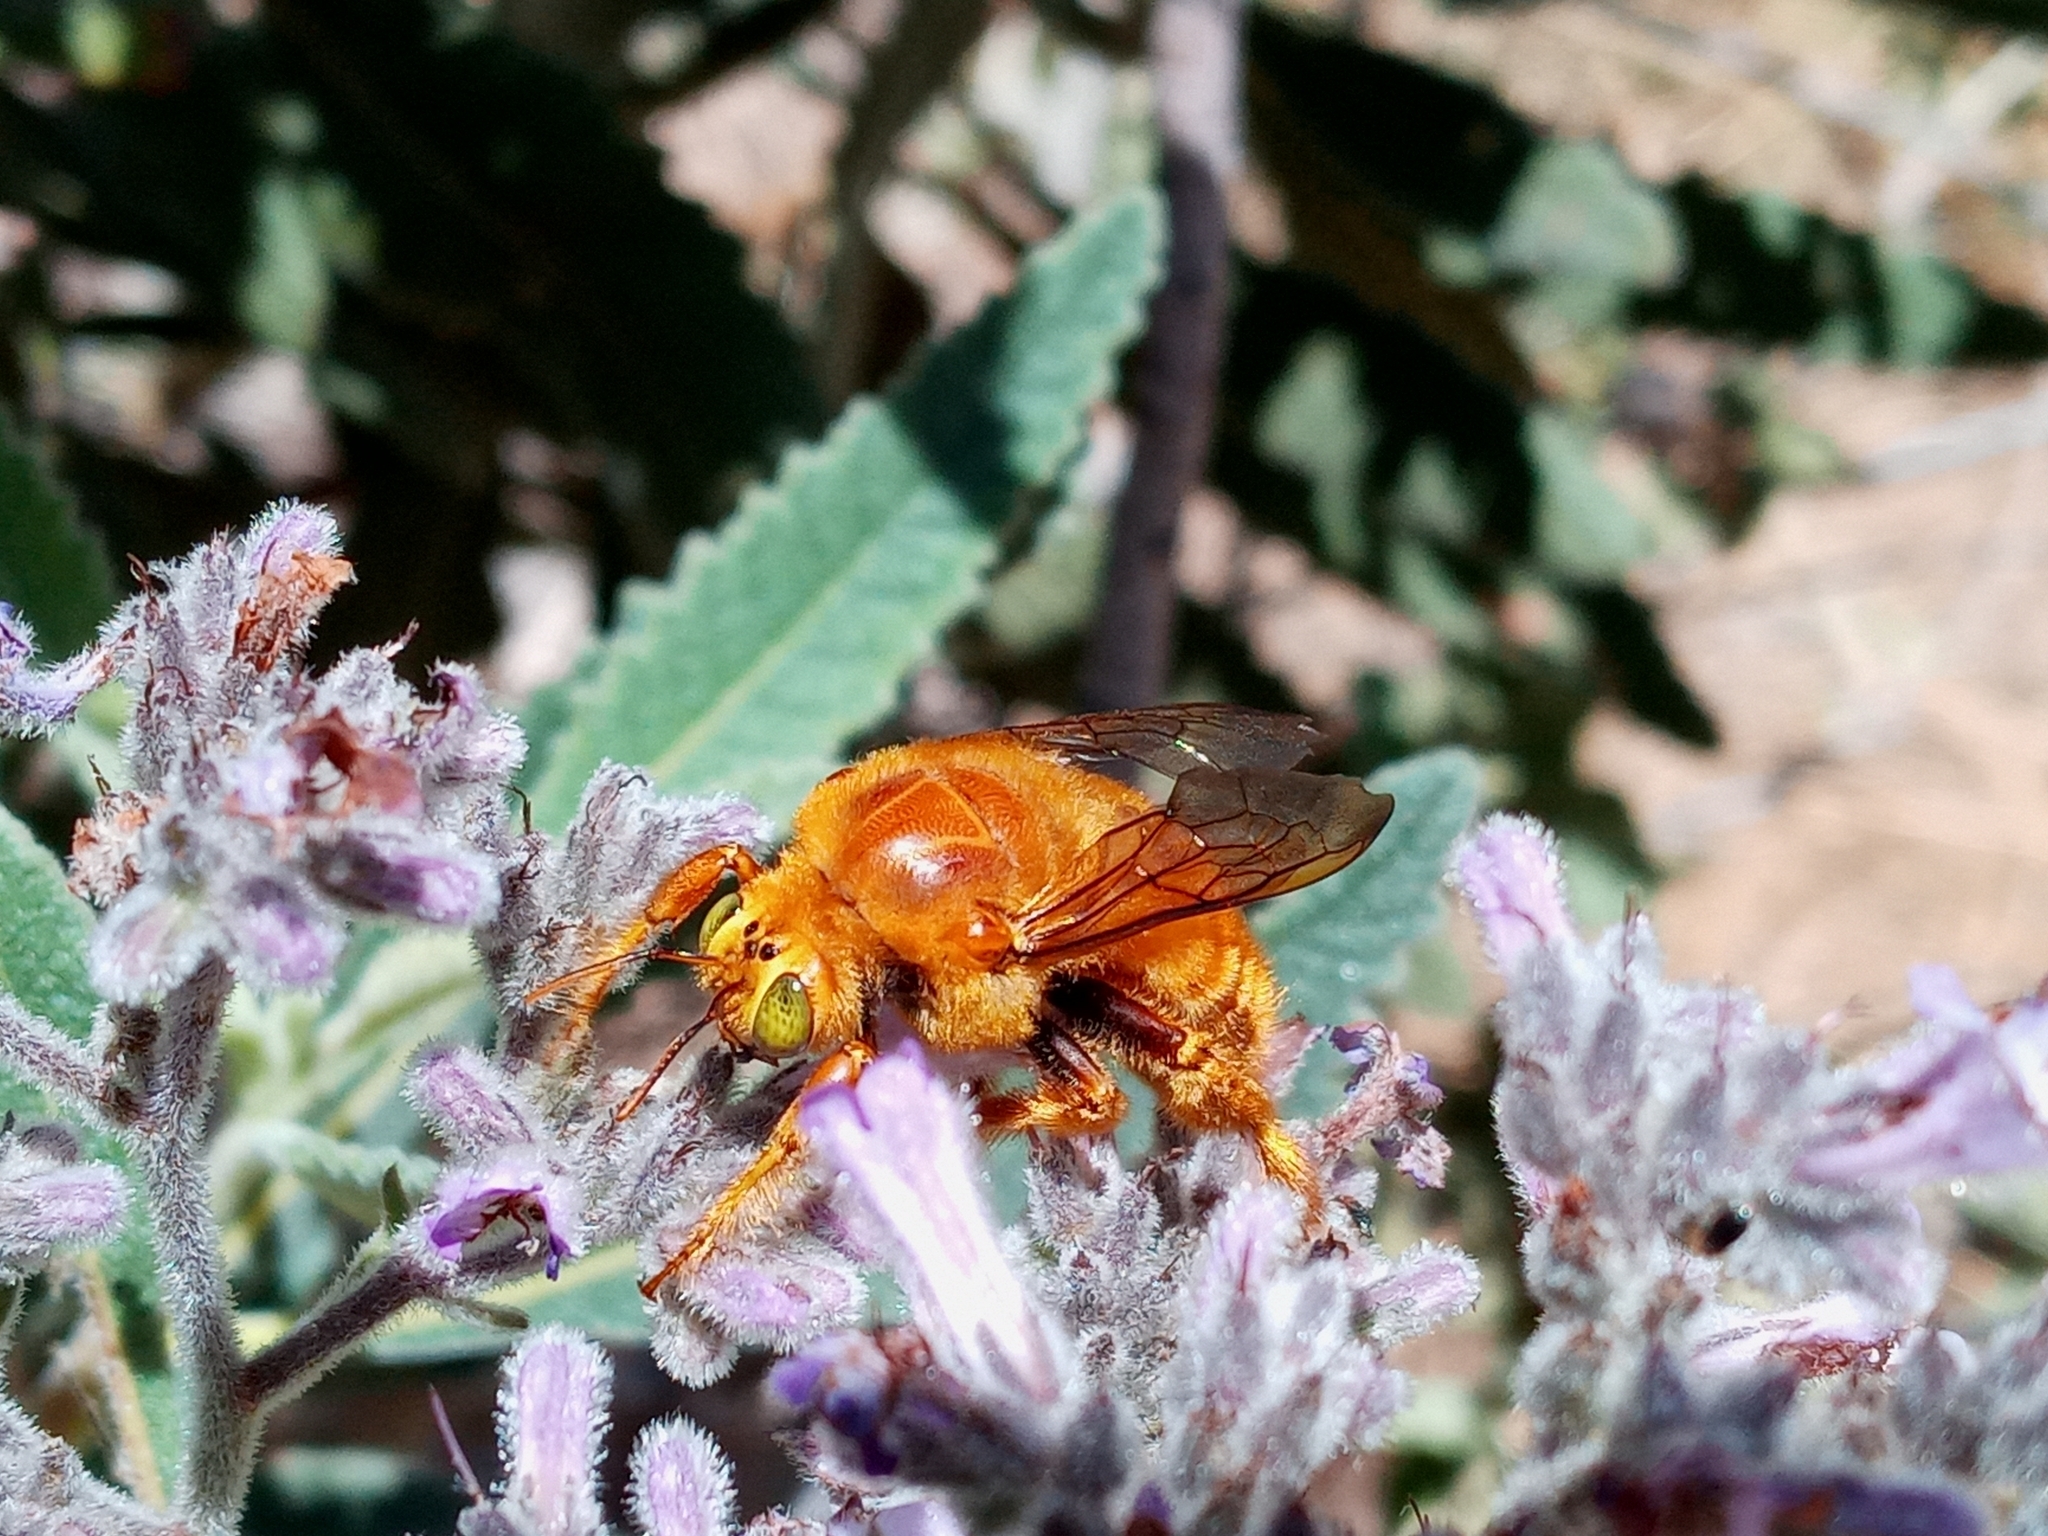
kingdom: Animalia
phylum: Arthropoda
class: Insecta
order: Hymenoptera
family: Apidae
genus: Xylocopa
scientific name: Xylocopa sonorina
